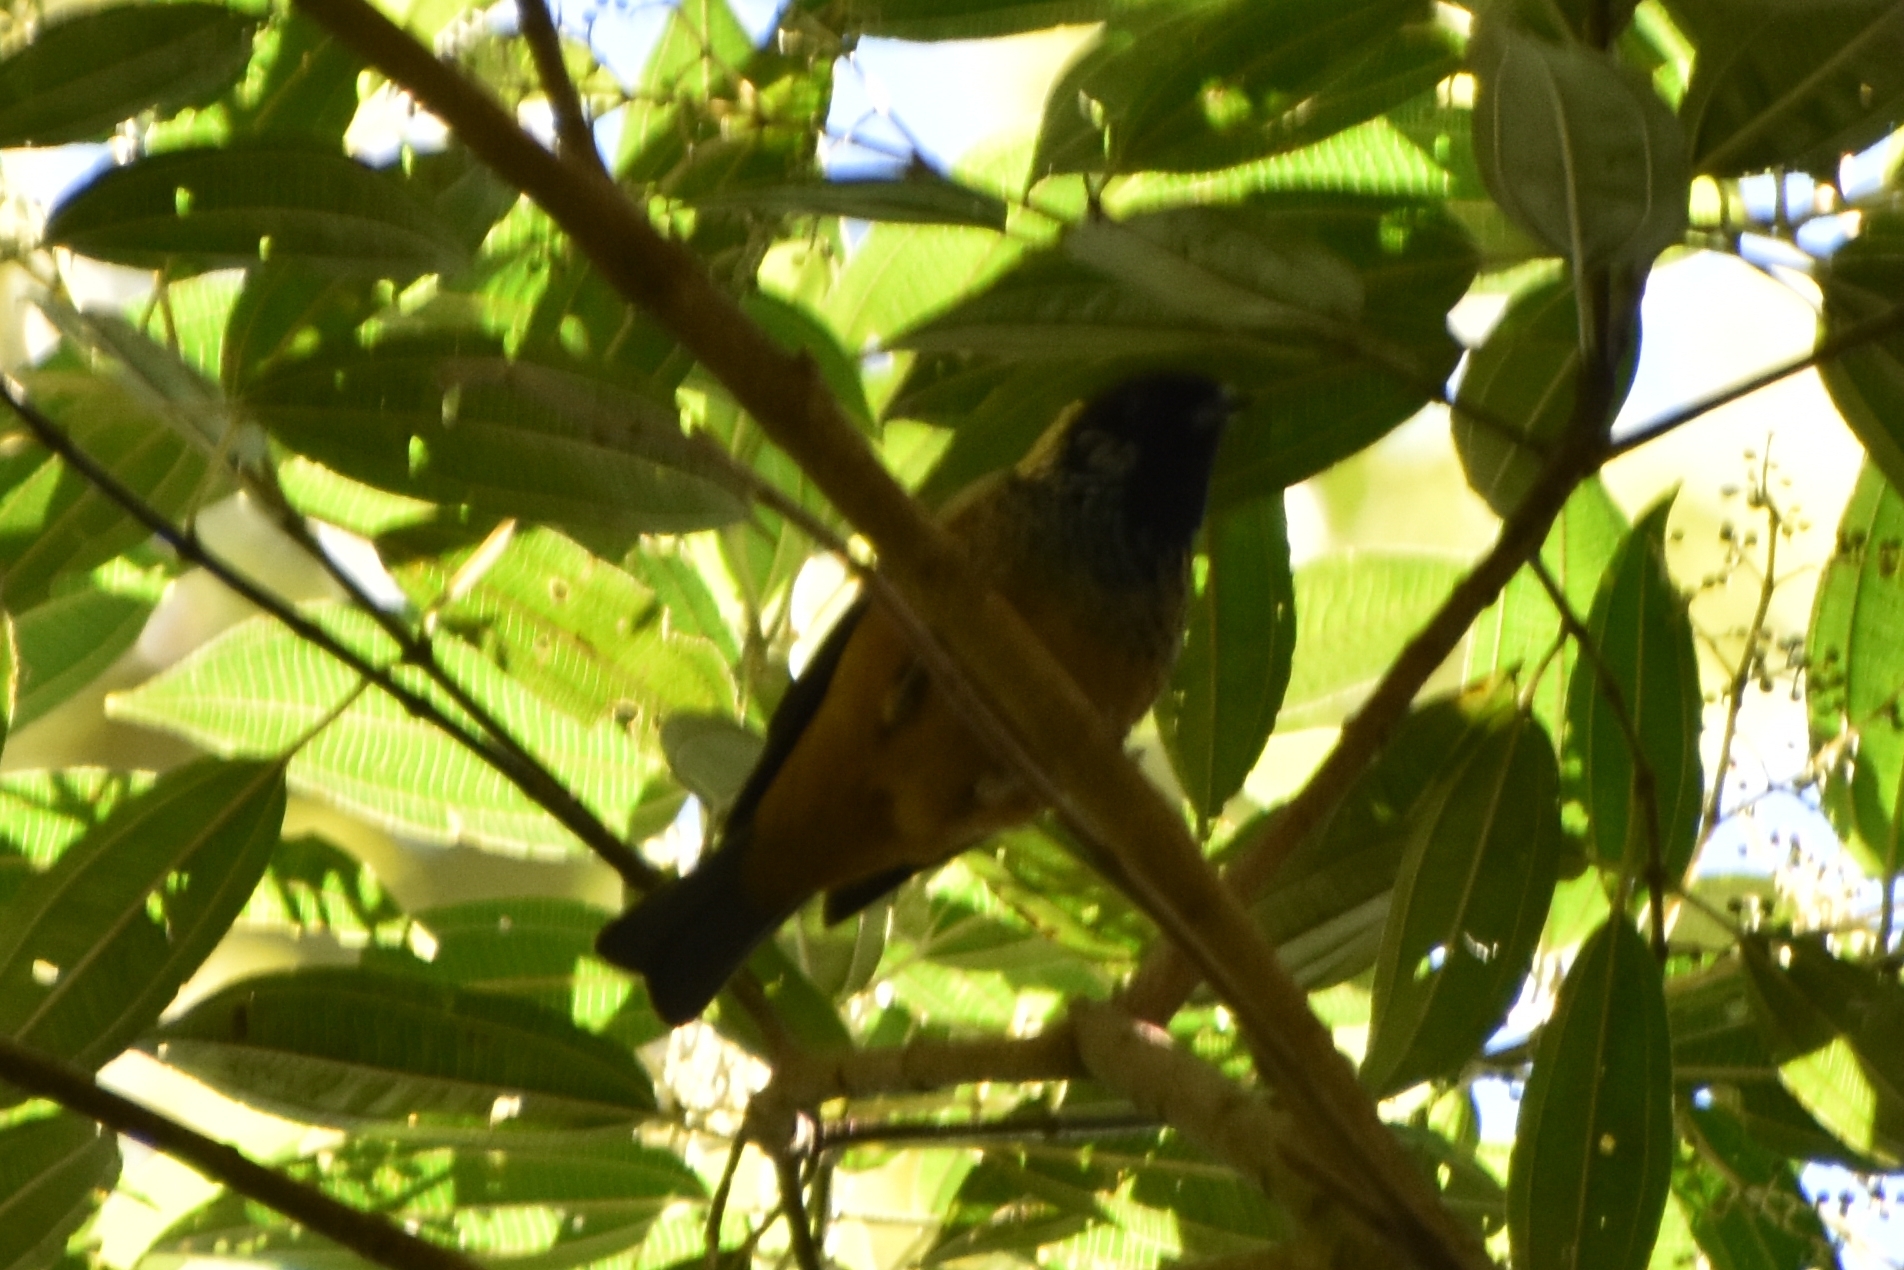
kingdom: Animalia
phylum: Chordata
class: Aves
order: Passeriformes
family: Thraupidae
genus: Tangara
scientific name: Tangara dowii
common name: Spangle-cheeked tanager
